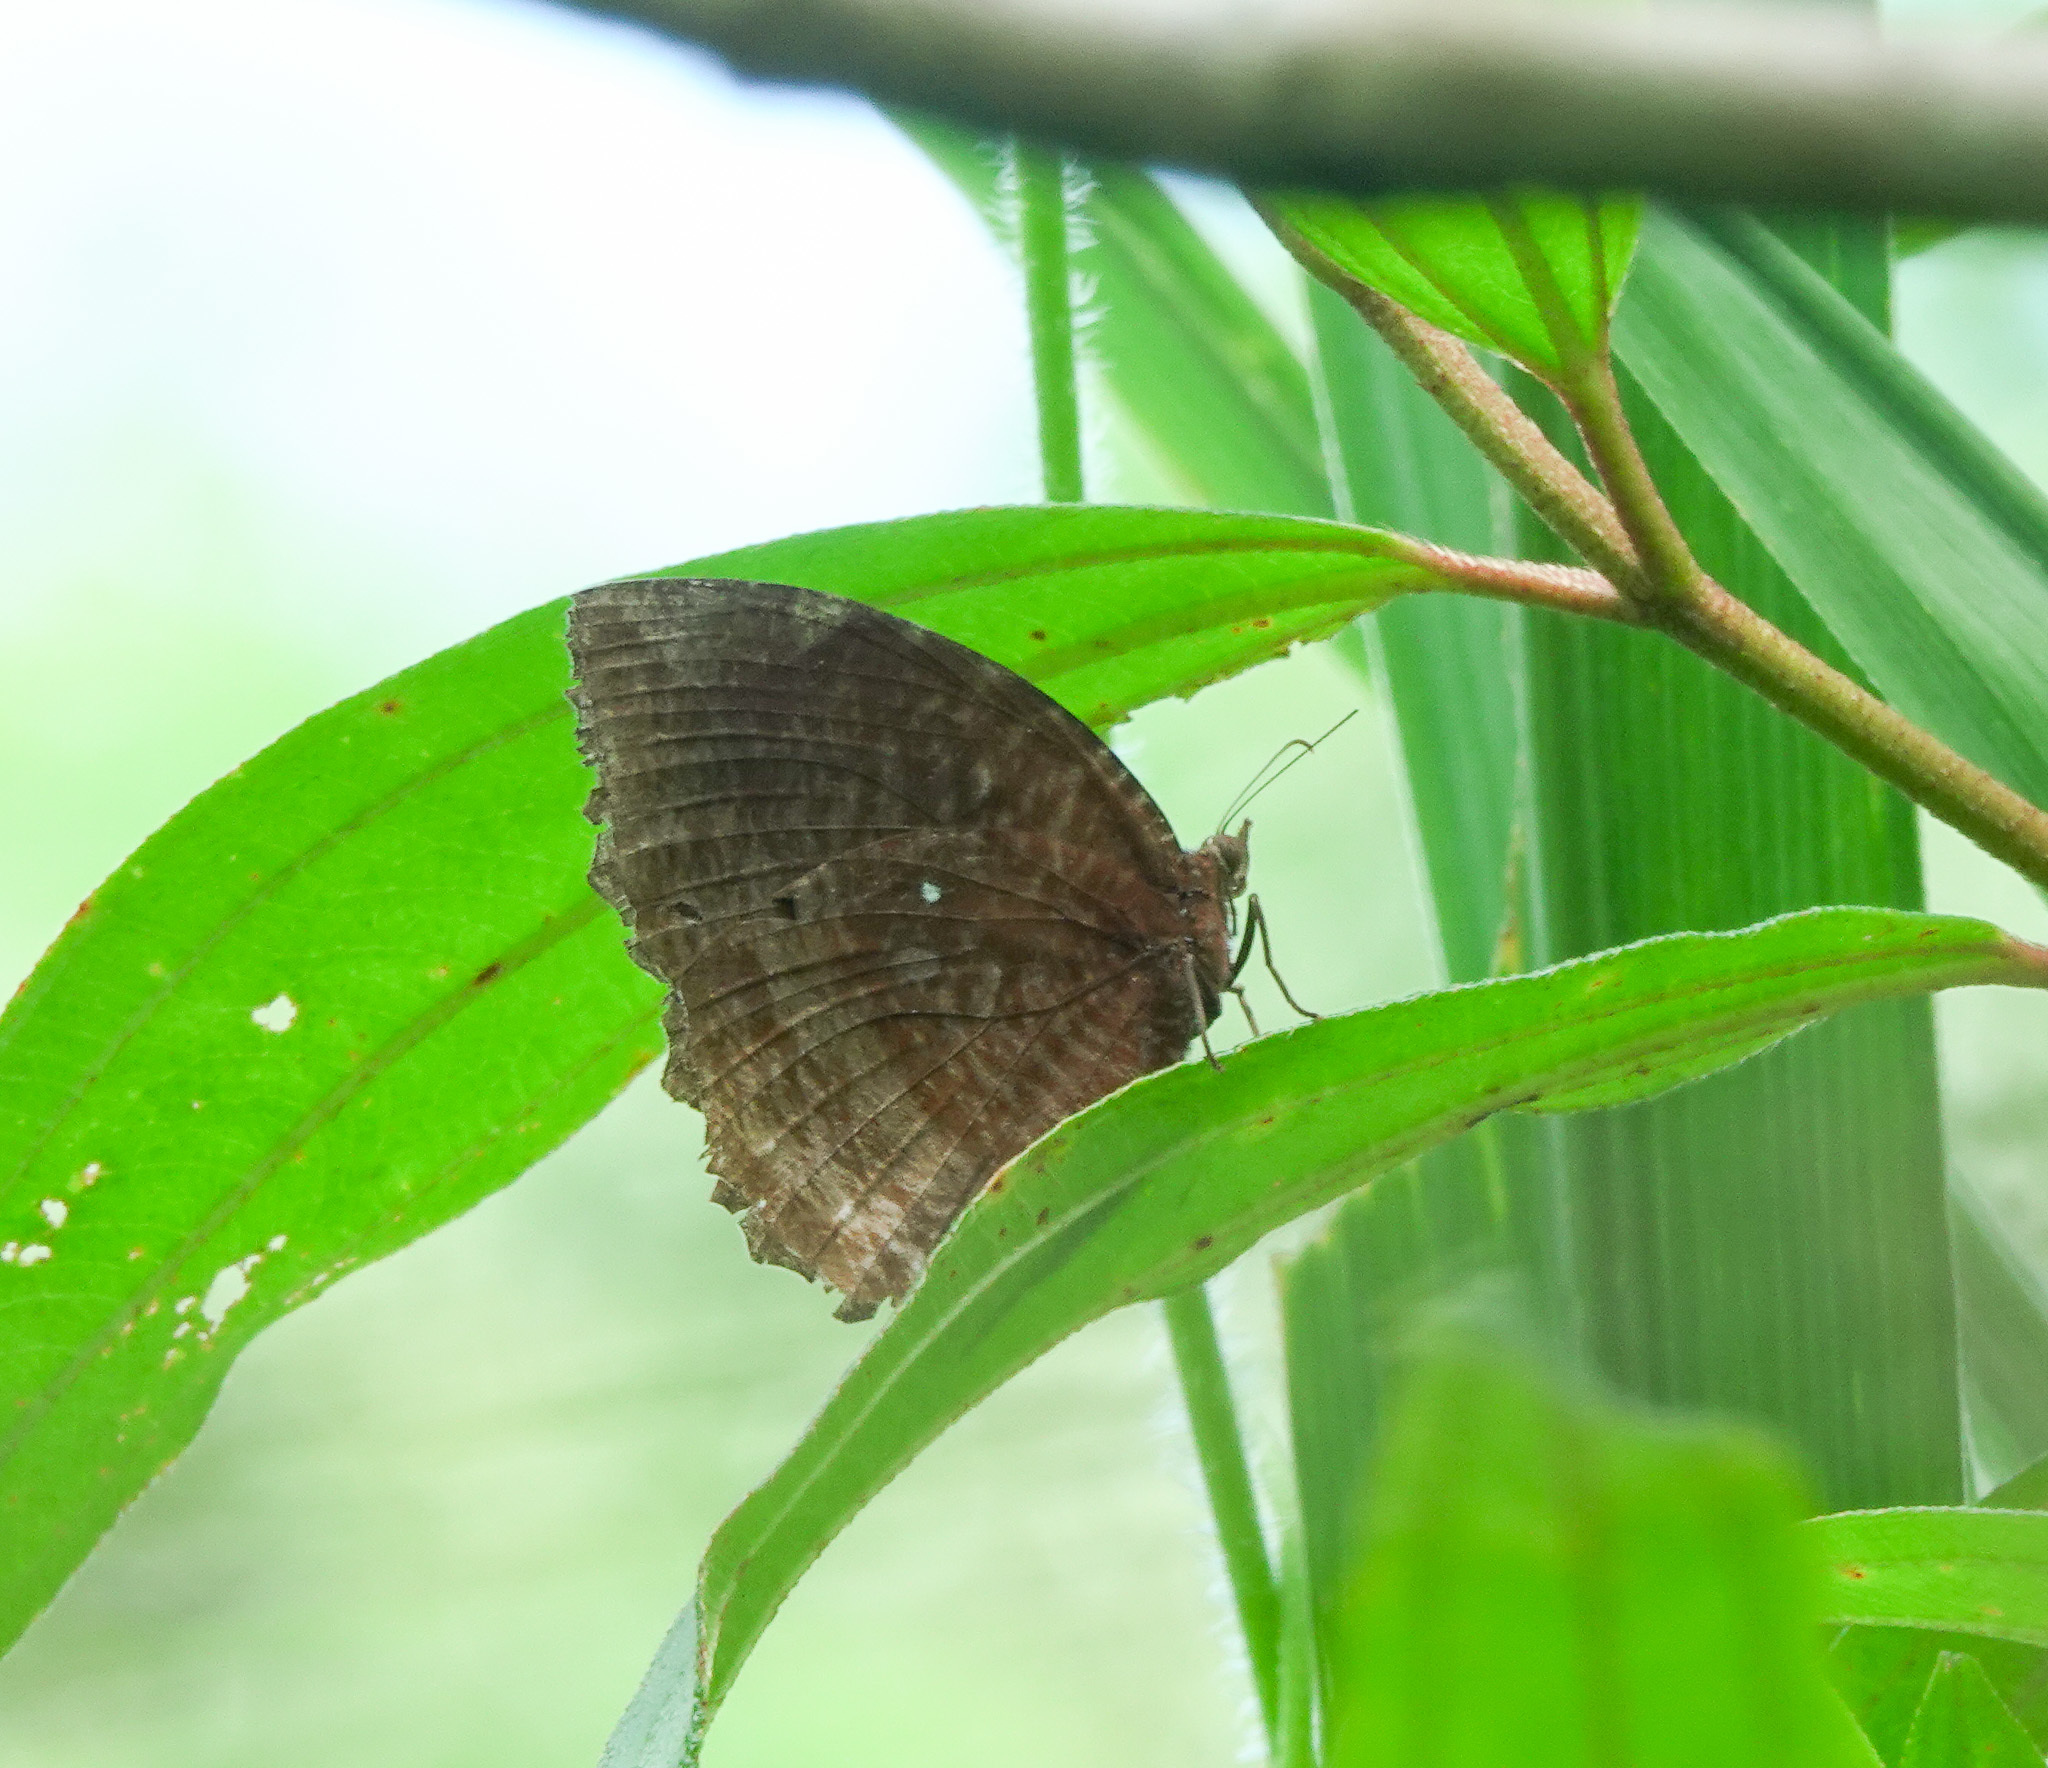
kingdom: Animalia
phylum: Arthropoda
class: Insecta
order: Lepidoptera
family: Nymphalidae
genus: Elymnias
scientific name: Elymnias hypermnestra
